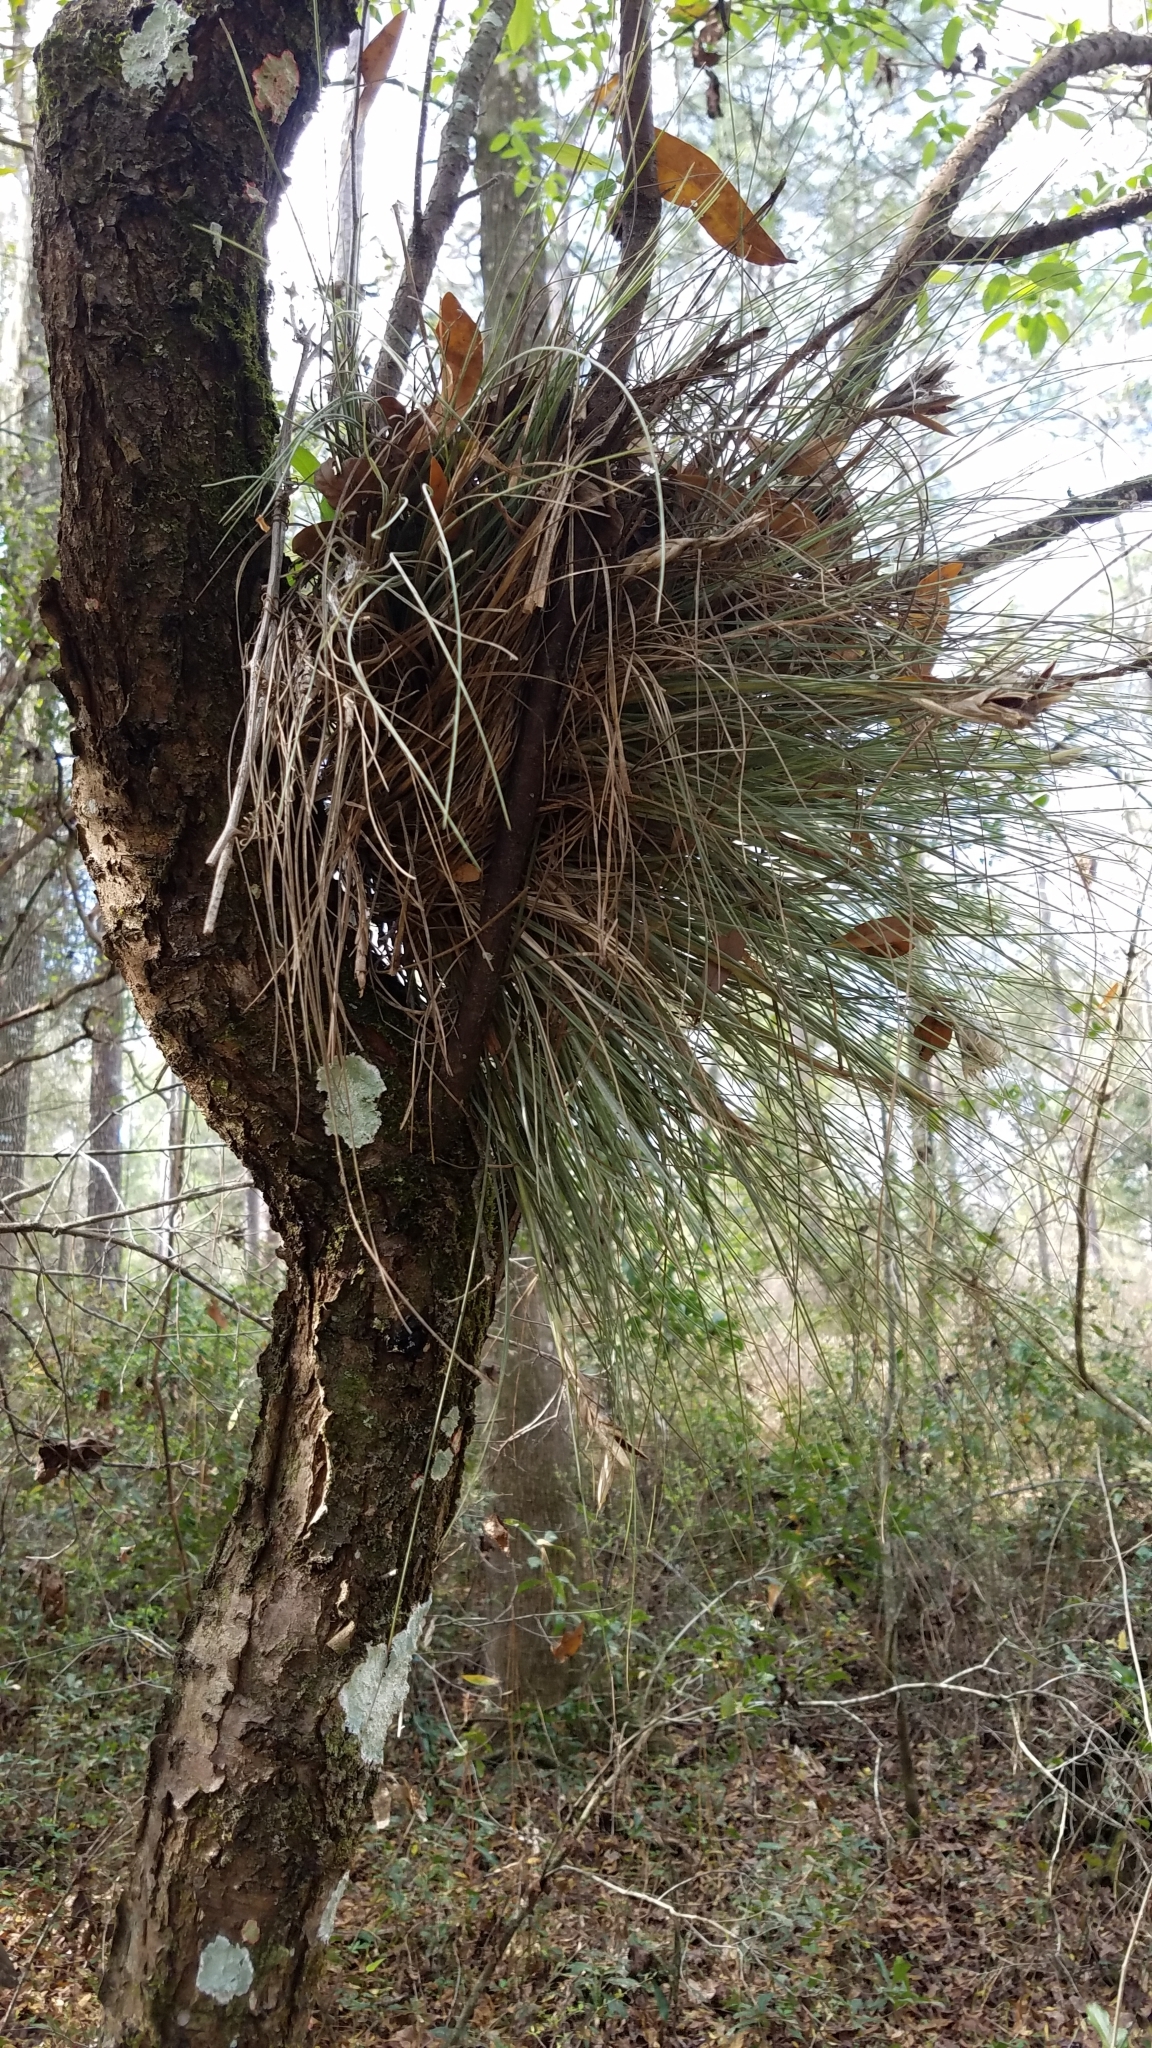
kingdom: Plantae
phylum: Tracheophyta
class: Liliopsida
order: Poales
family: Bromeliaceae
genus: Tillandsia
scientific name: Tillandsia bartramii
